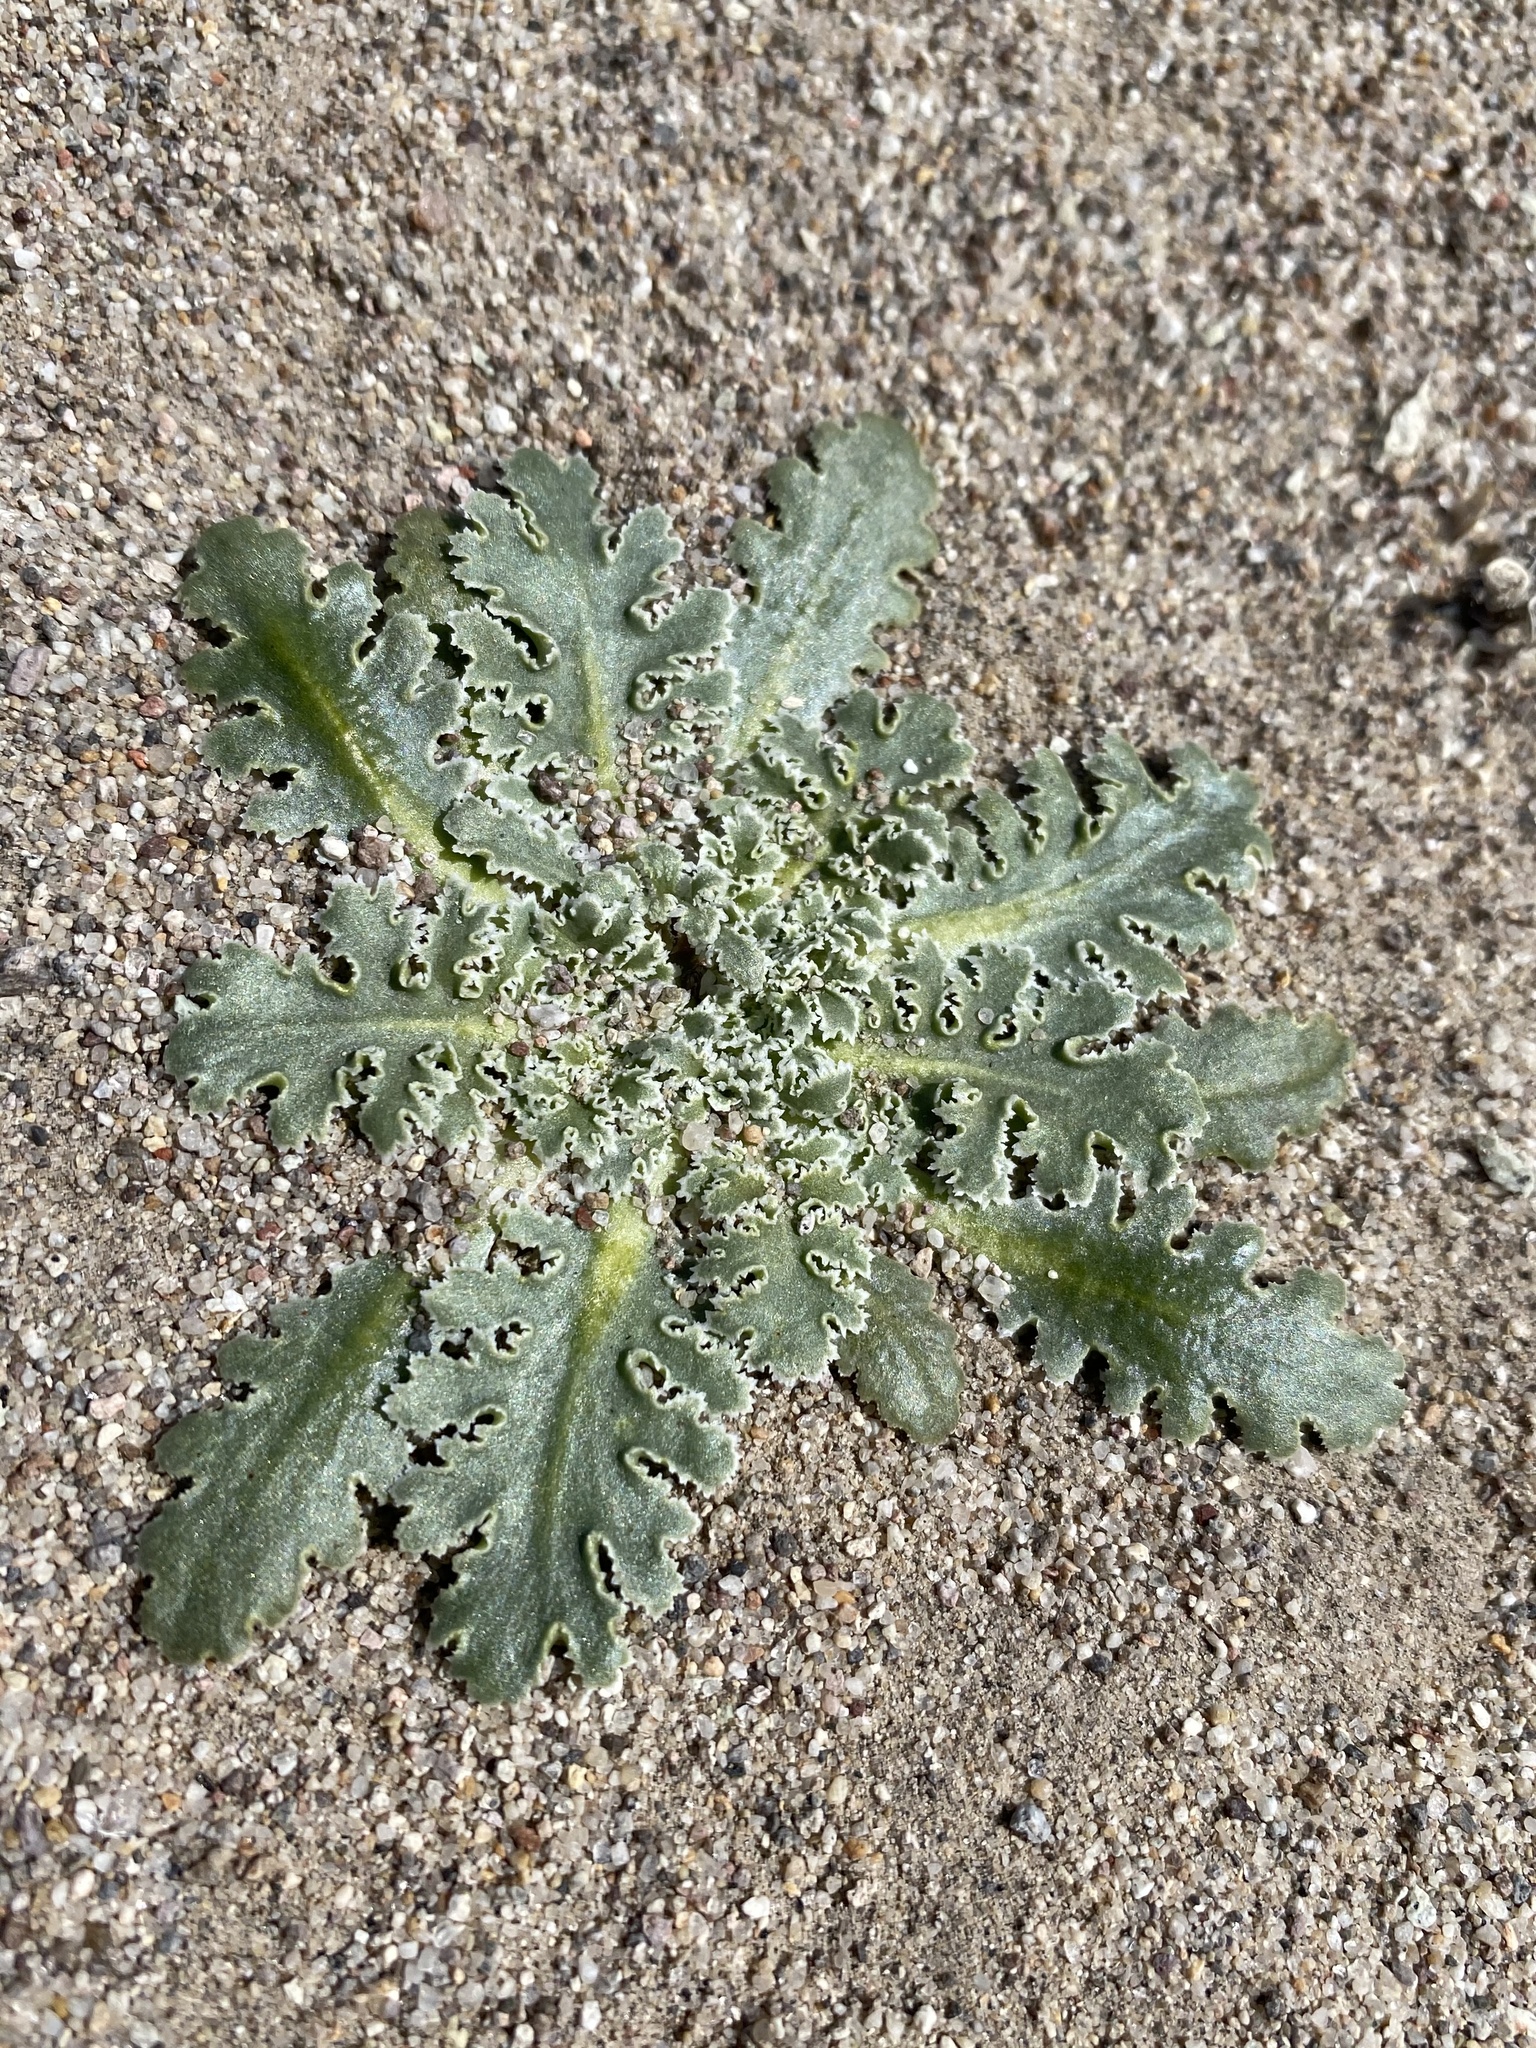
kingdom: Plantae
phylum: Tracheophyta
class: Magnoliopsida
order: Asterales
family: Asteraceae
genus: Glyptopleura
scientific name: Glyptopleura marginata
